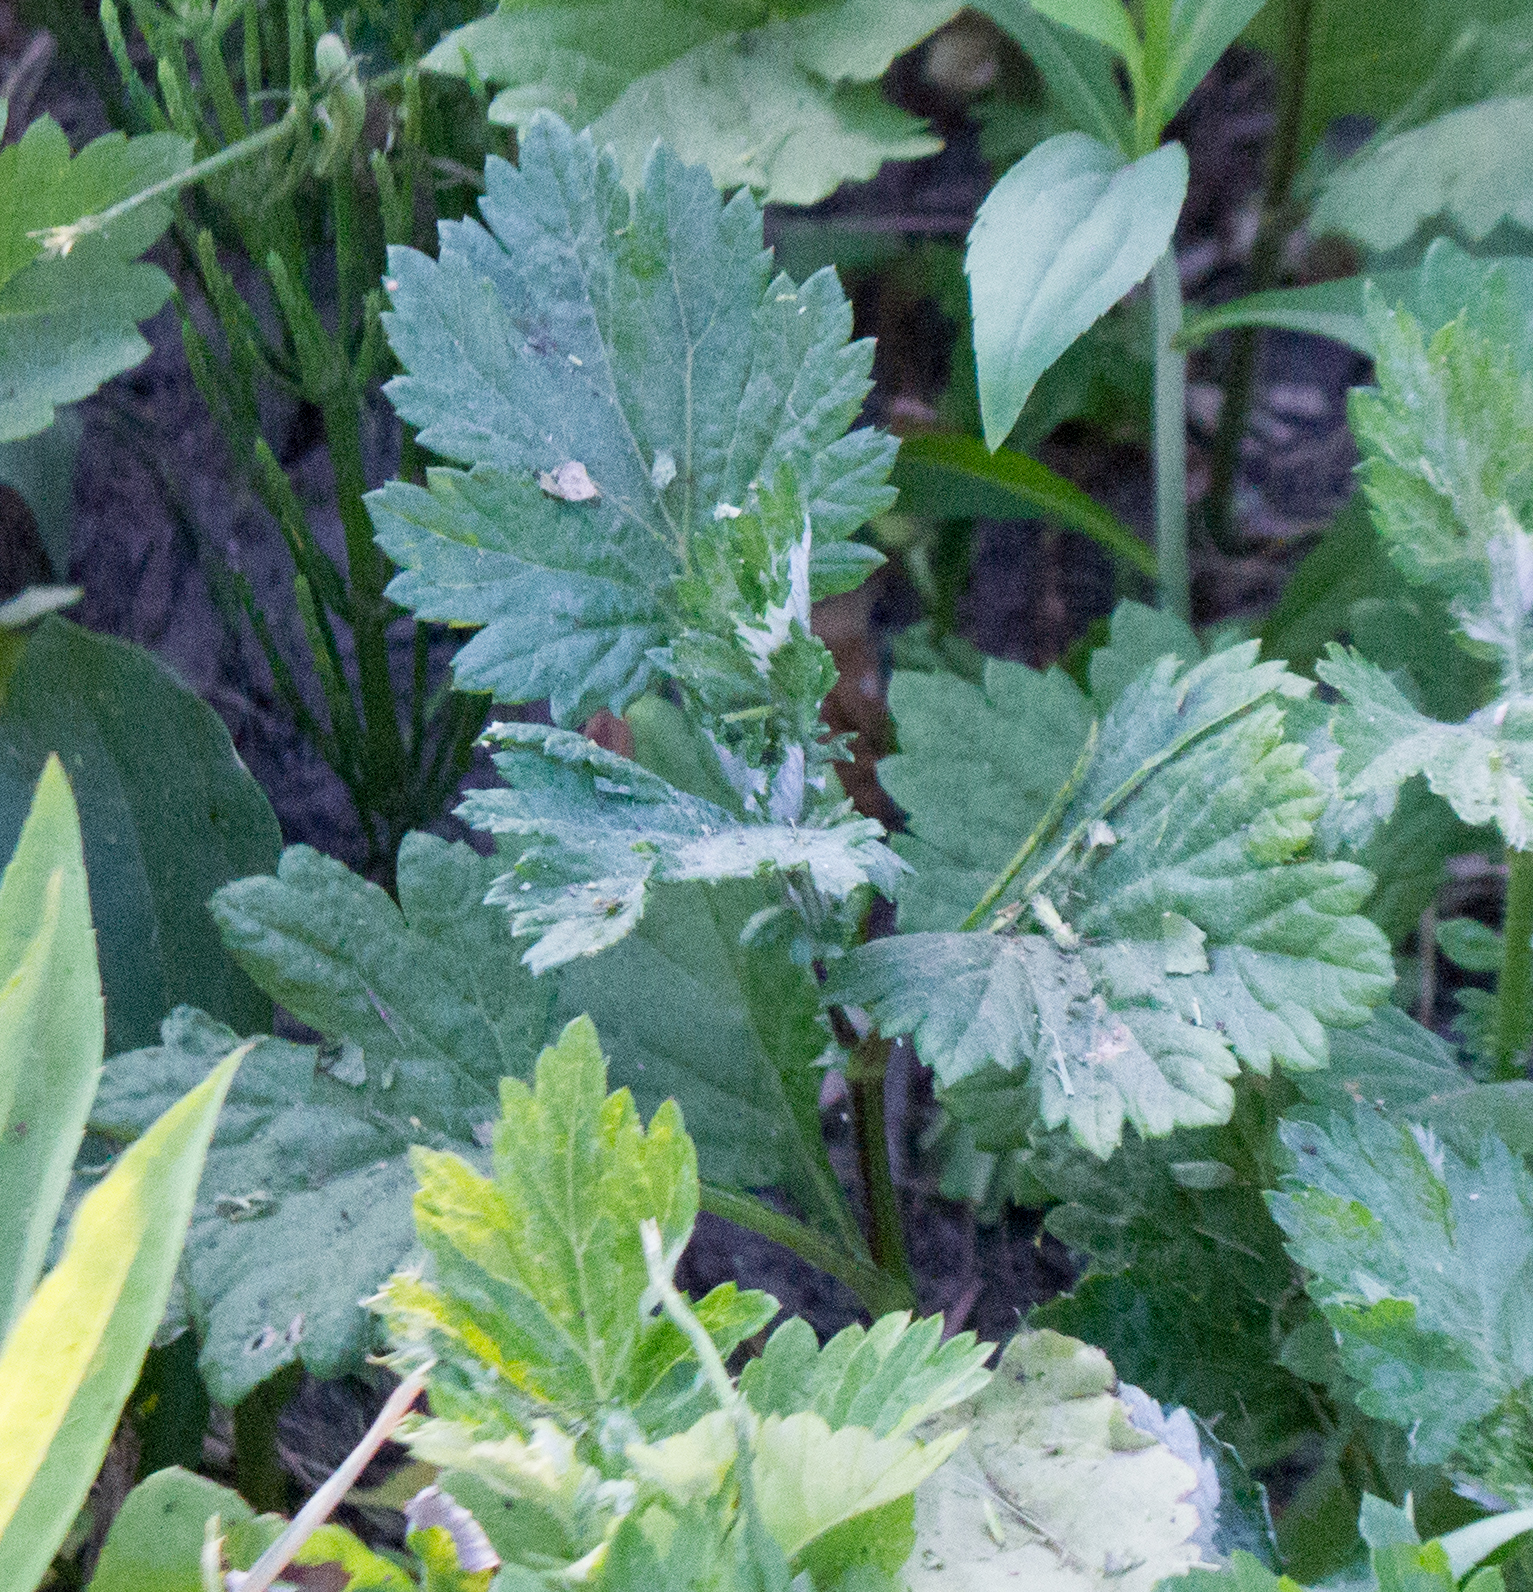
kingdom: Plantae
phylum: Tracheophyta
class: Magnoliopsida
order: Asterales
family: Asteraceae
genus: Artemisia
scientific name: Artemisia vulgaris
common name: Mugwort
